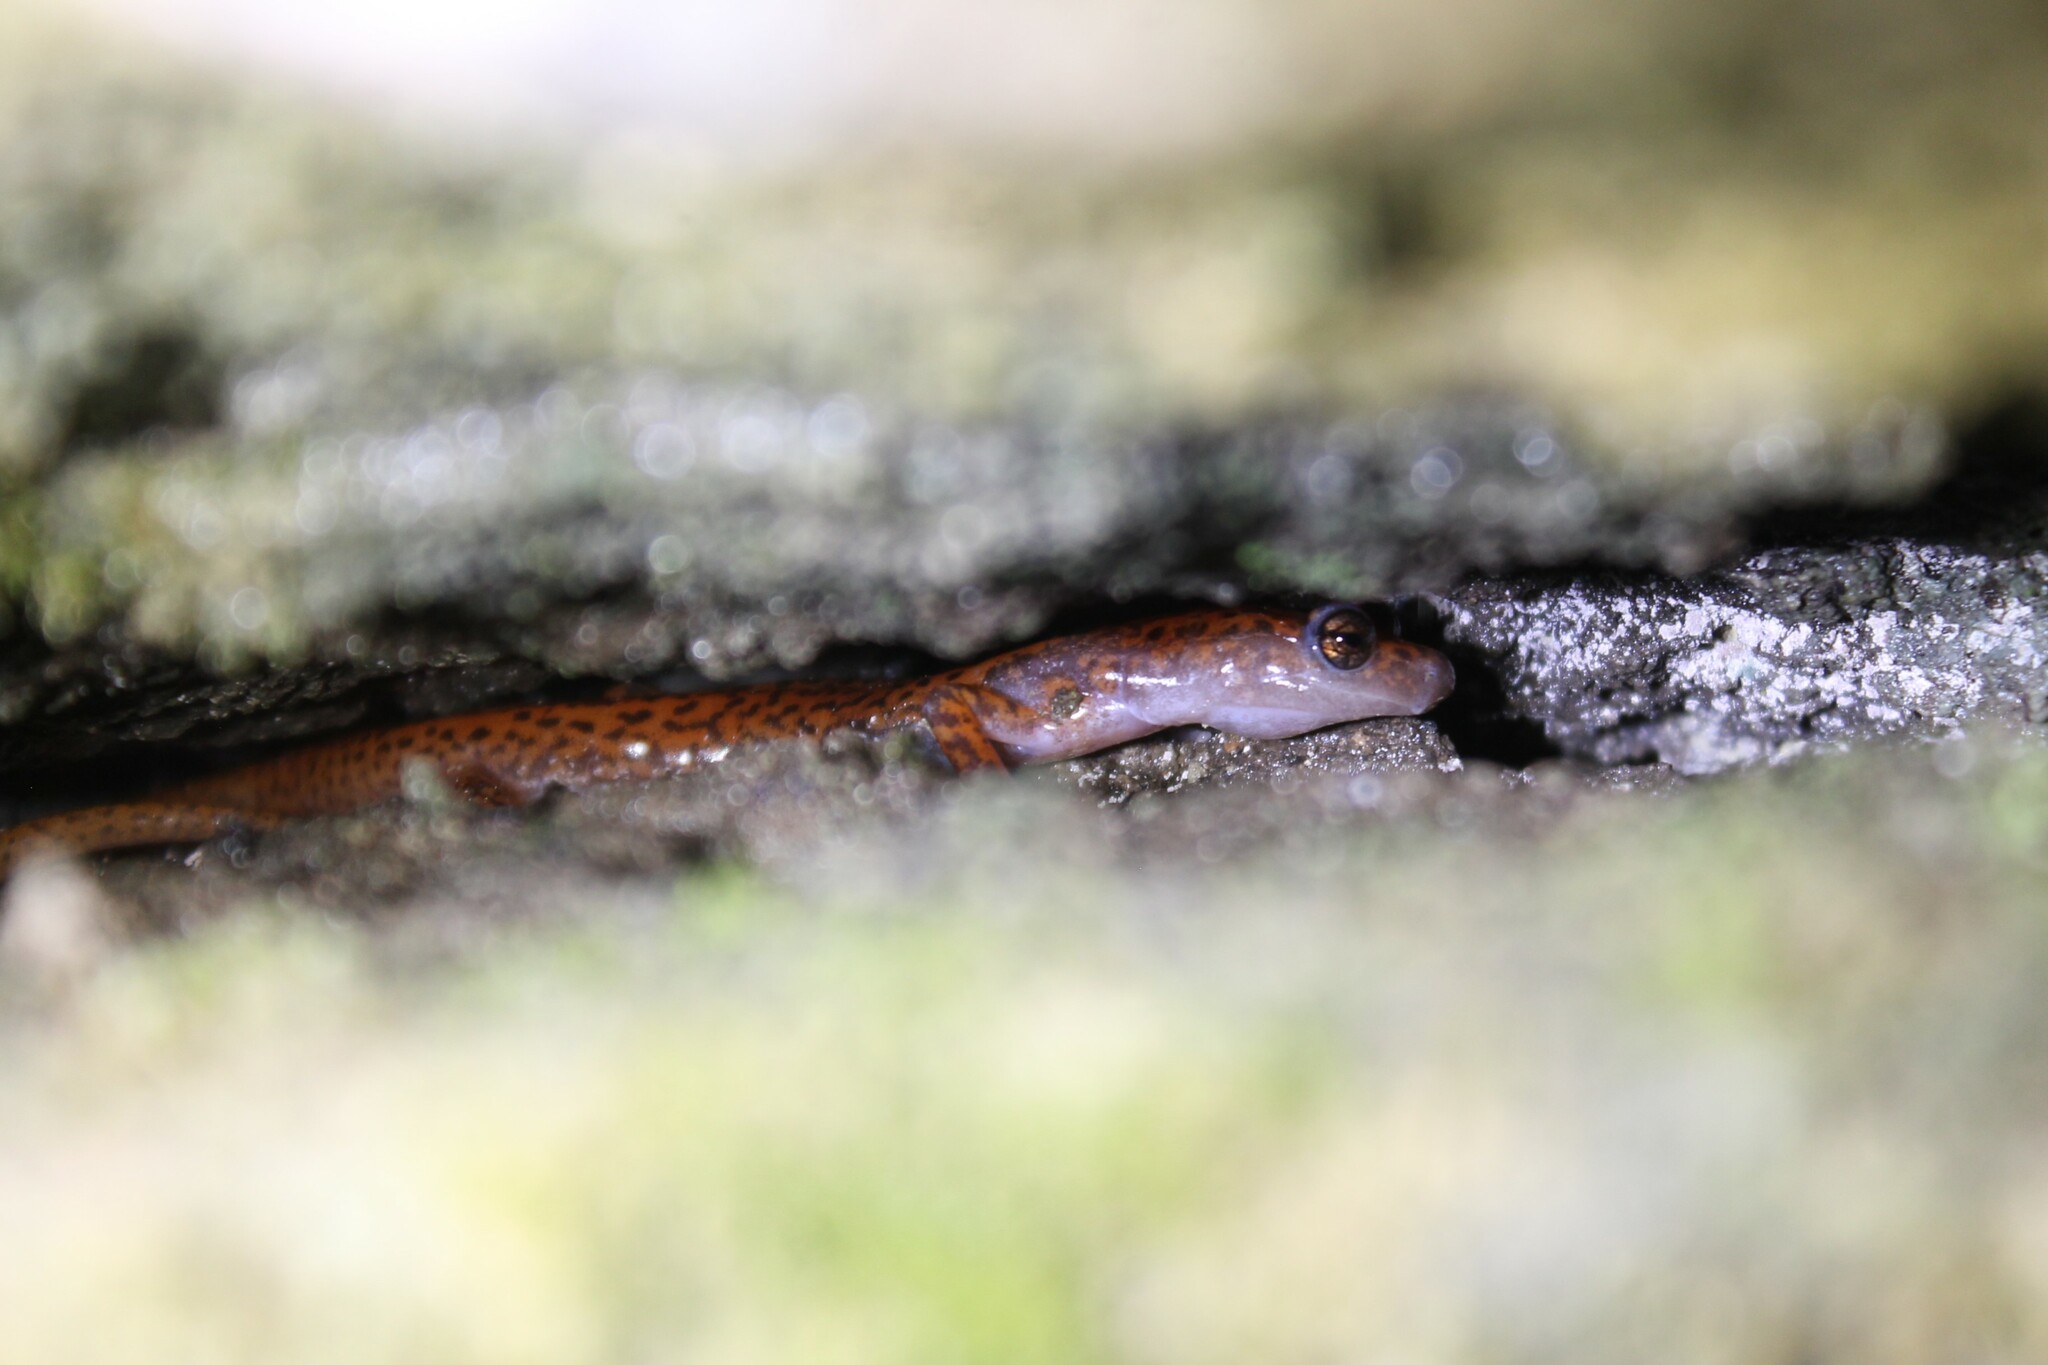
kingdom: Animalia
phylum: Chordata
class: Amphibia
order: Caudata
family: Plethodontidae
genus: Eurycea
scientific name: Eurycea lucifuga
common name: Cave salamander
